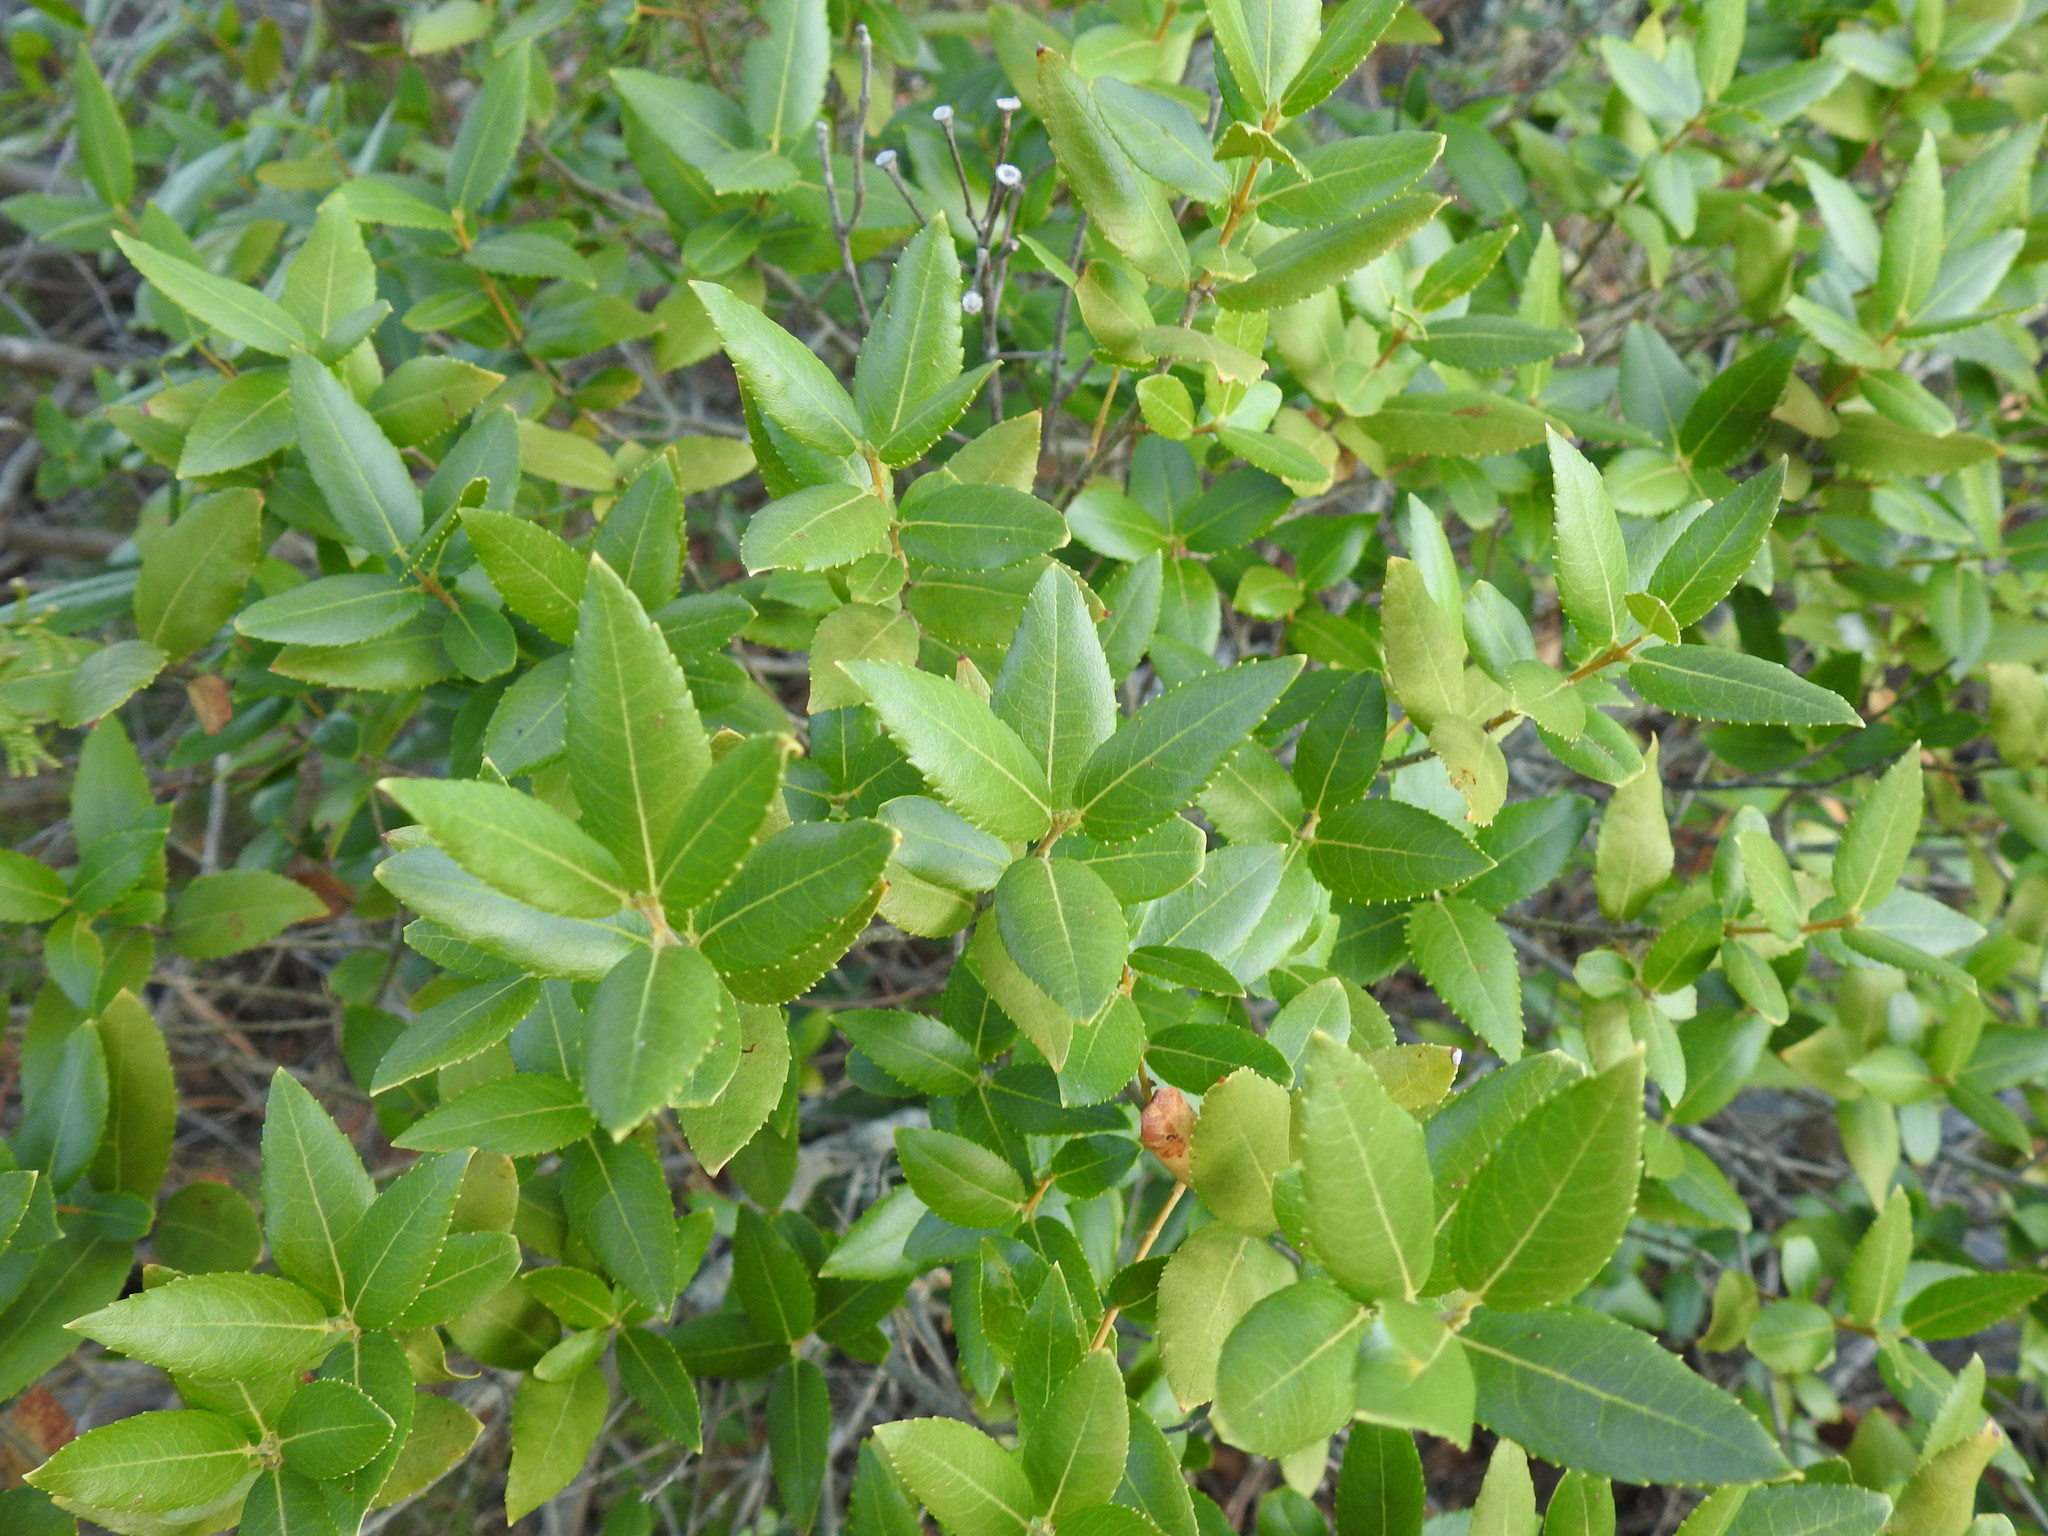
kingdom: Plantae
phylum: Tracheophyta
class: Magnoliopsida
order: Lamiales
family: Oleaceae
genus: Phillyrea
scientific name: Phillyrea latifolia
